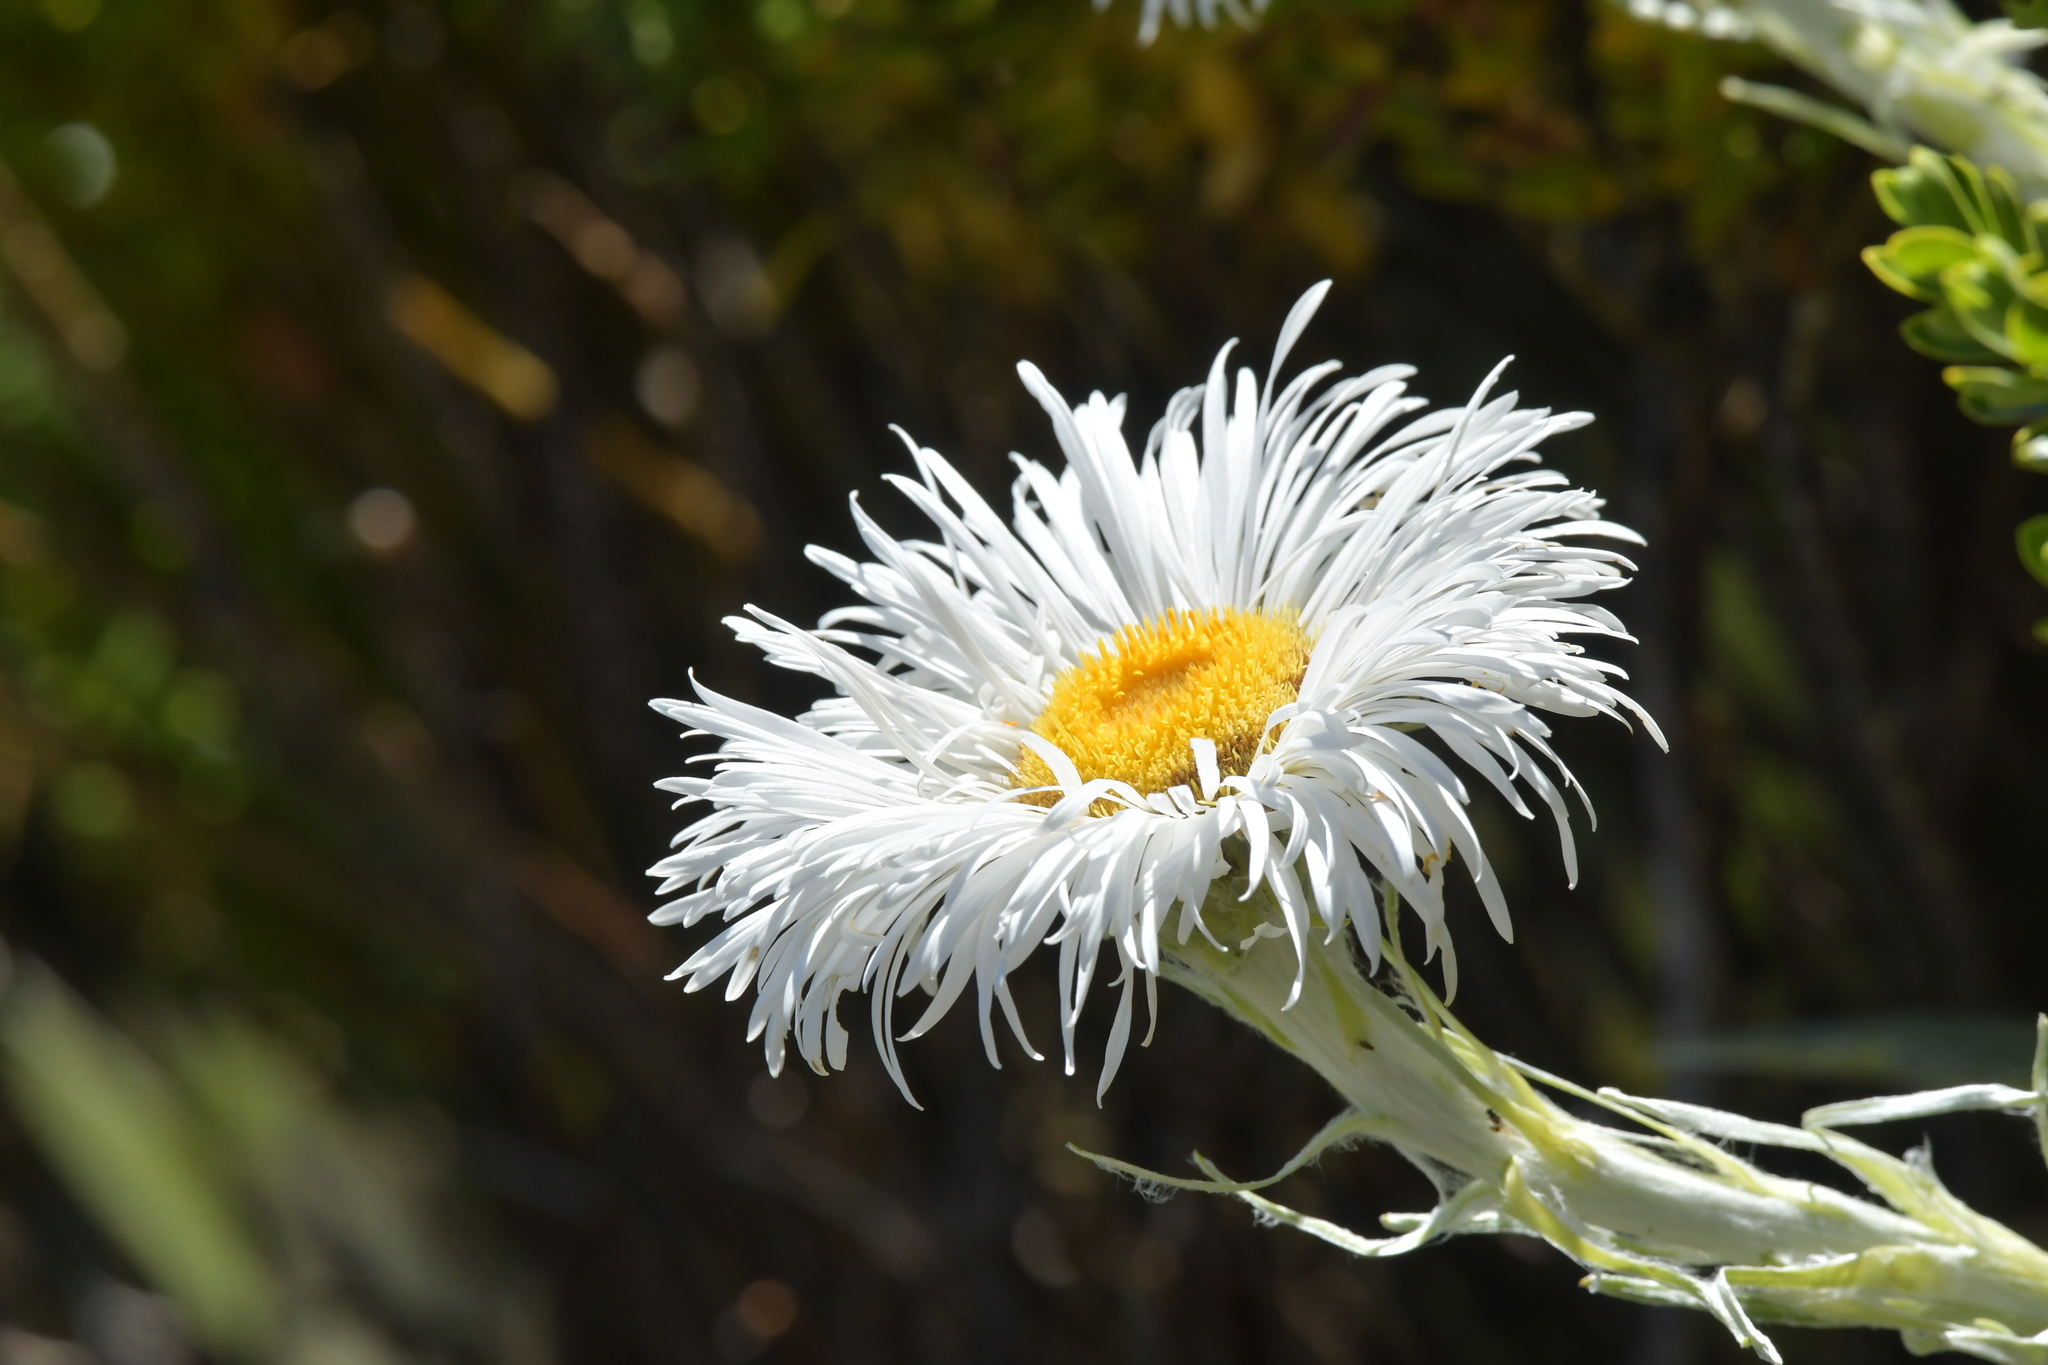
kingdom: Plantae
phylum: Tracheophyta
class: Magnoliopsida
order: Asterales
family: Asteraceae
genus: Celmisia
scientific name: Celmisia semicordata
